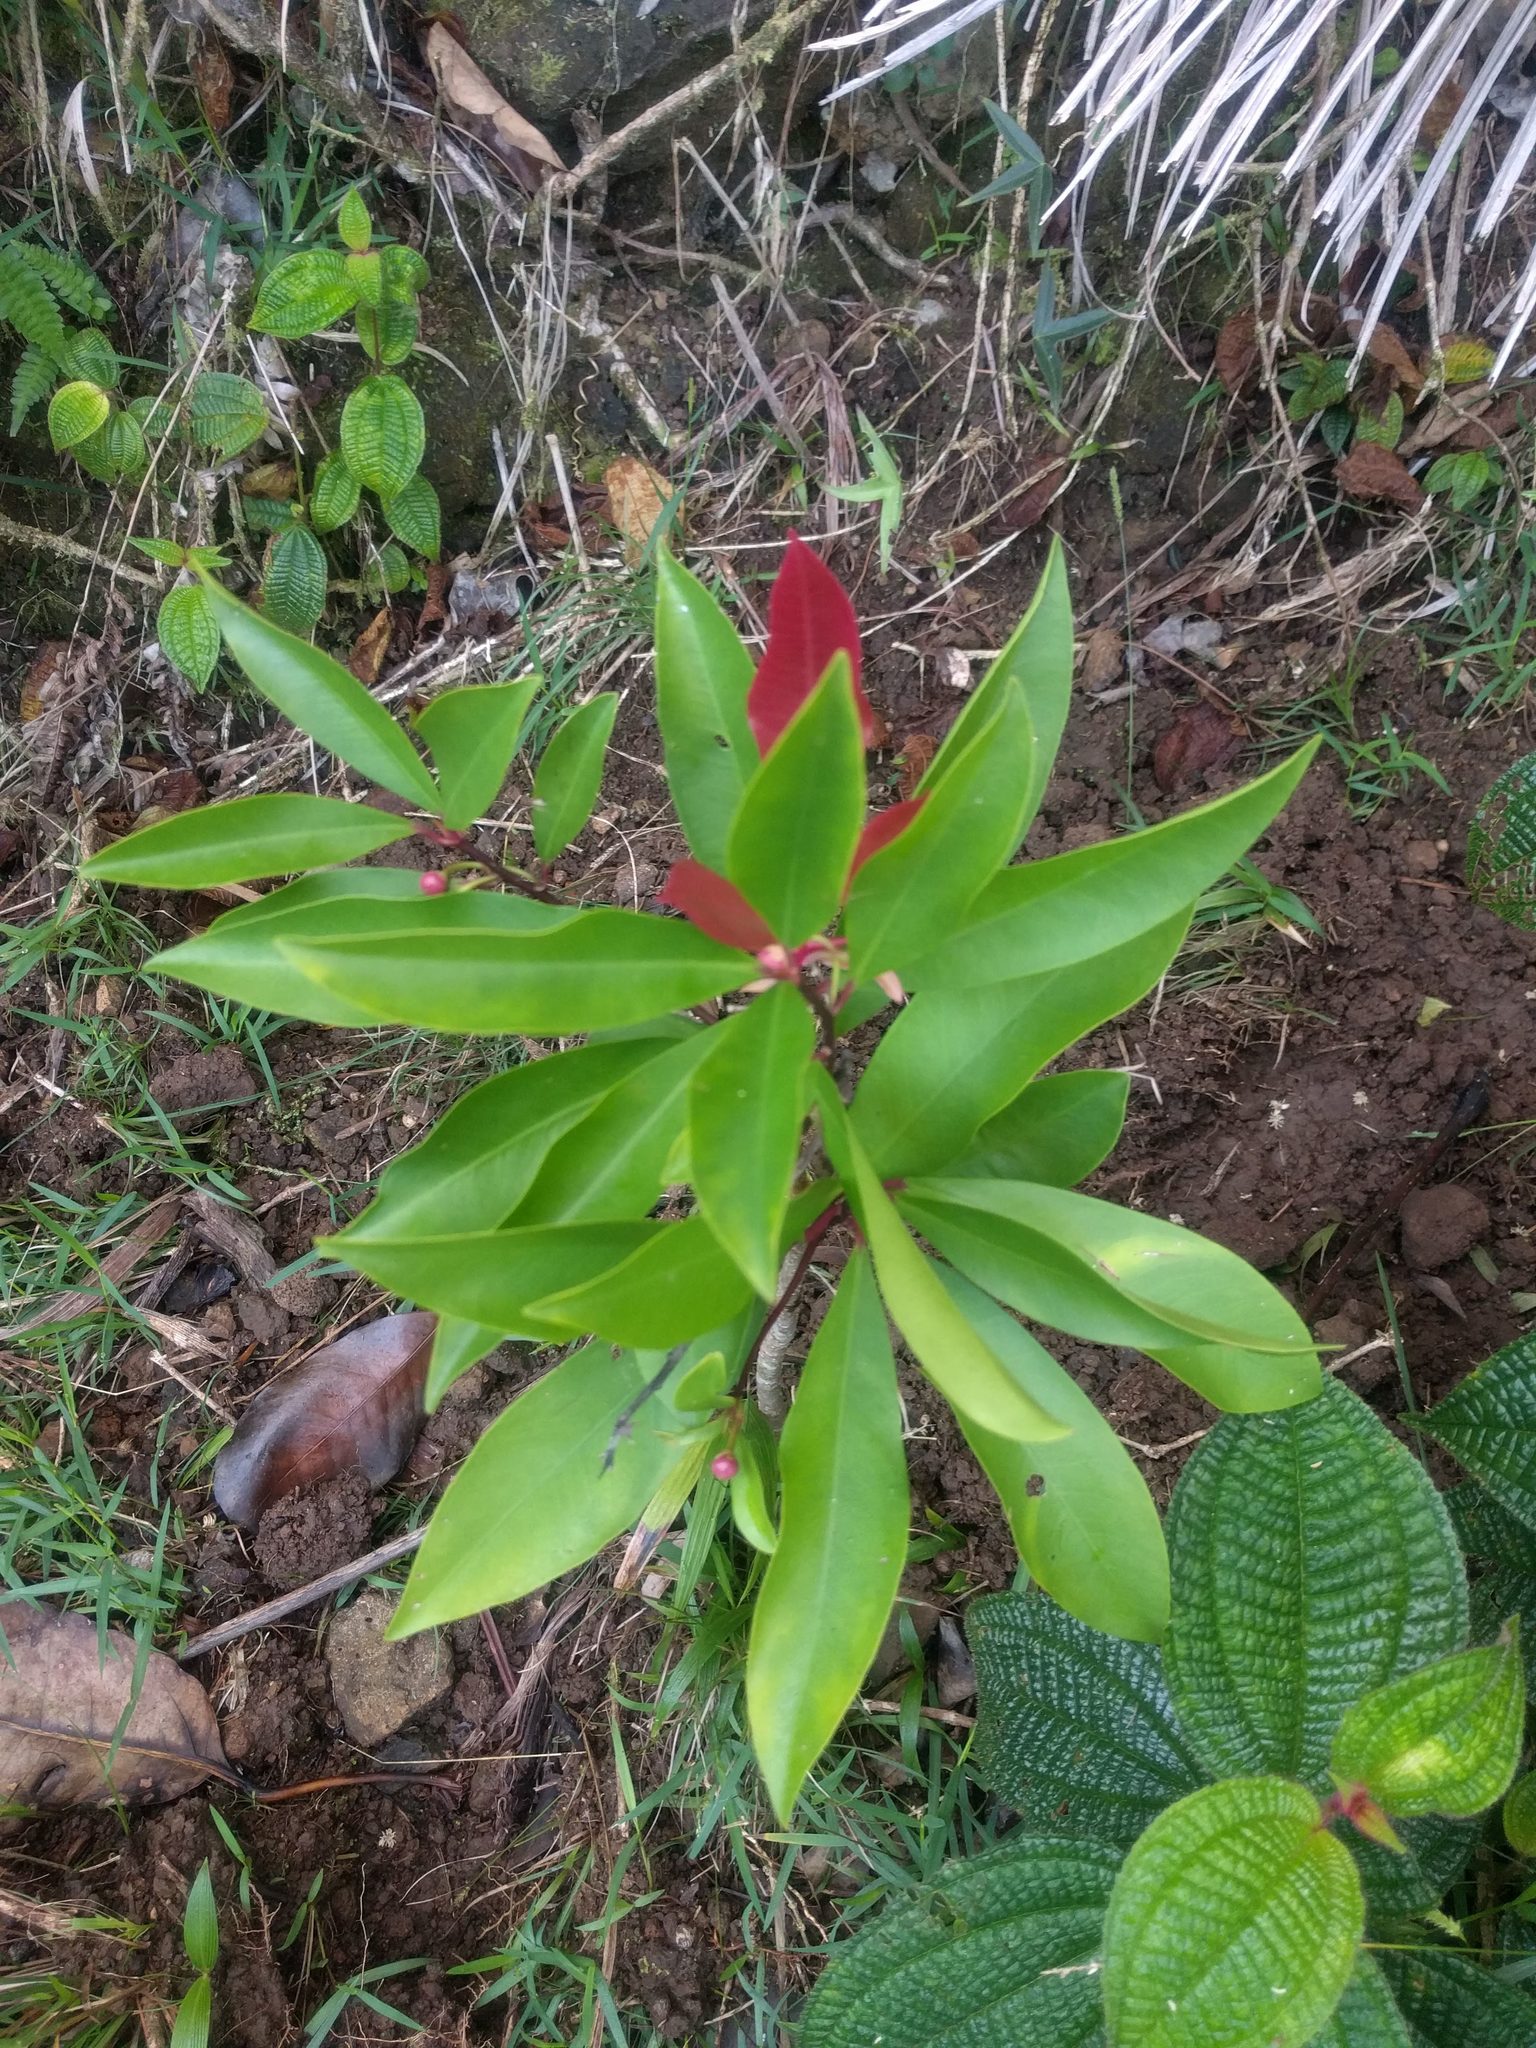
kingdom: Plantae
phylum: Tracheophyta
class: Magnoliopsida
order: Ericales
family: Primulaceae
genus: Ardisia
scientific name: Ardisia elliptica
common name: Shoebutton
